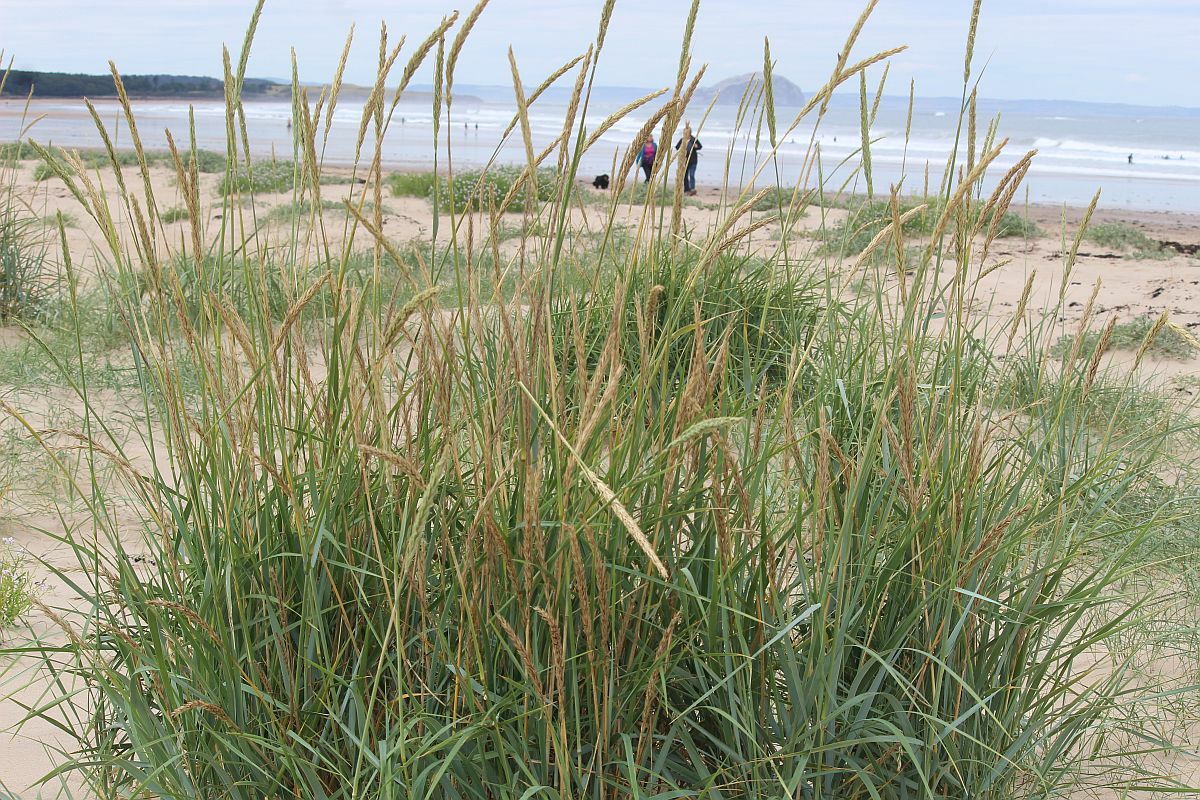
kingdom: Plantae
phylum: Tracheophyta
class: Liliopsida
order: Poales
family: Poaceae
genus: Leymus
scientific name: Leymus arenarius
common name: Lyme-grass
